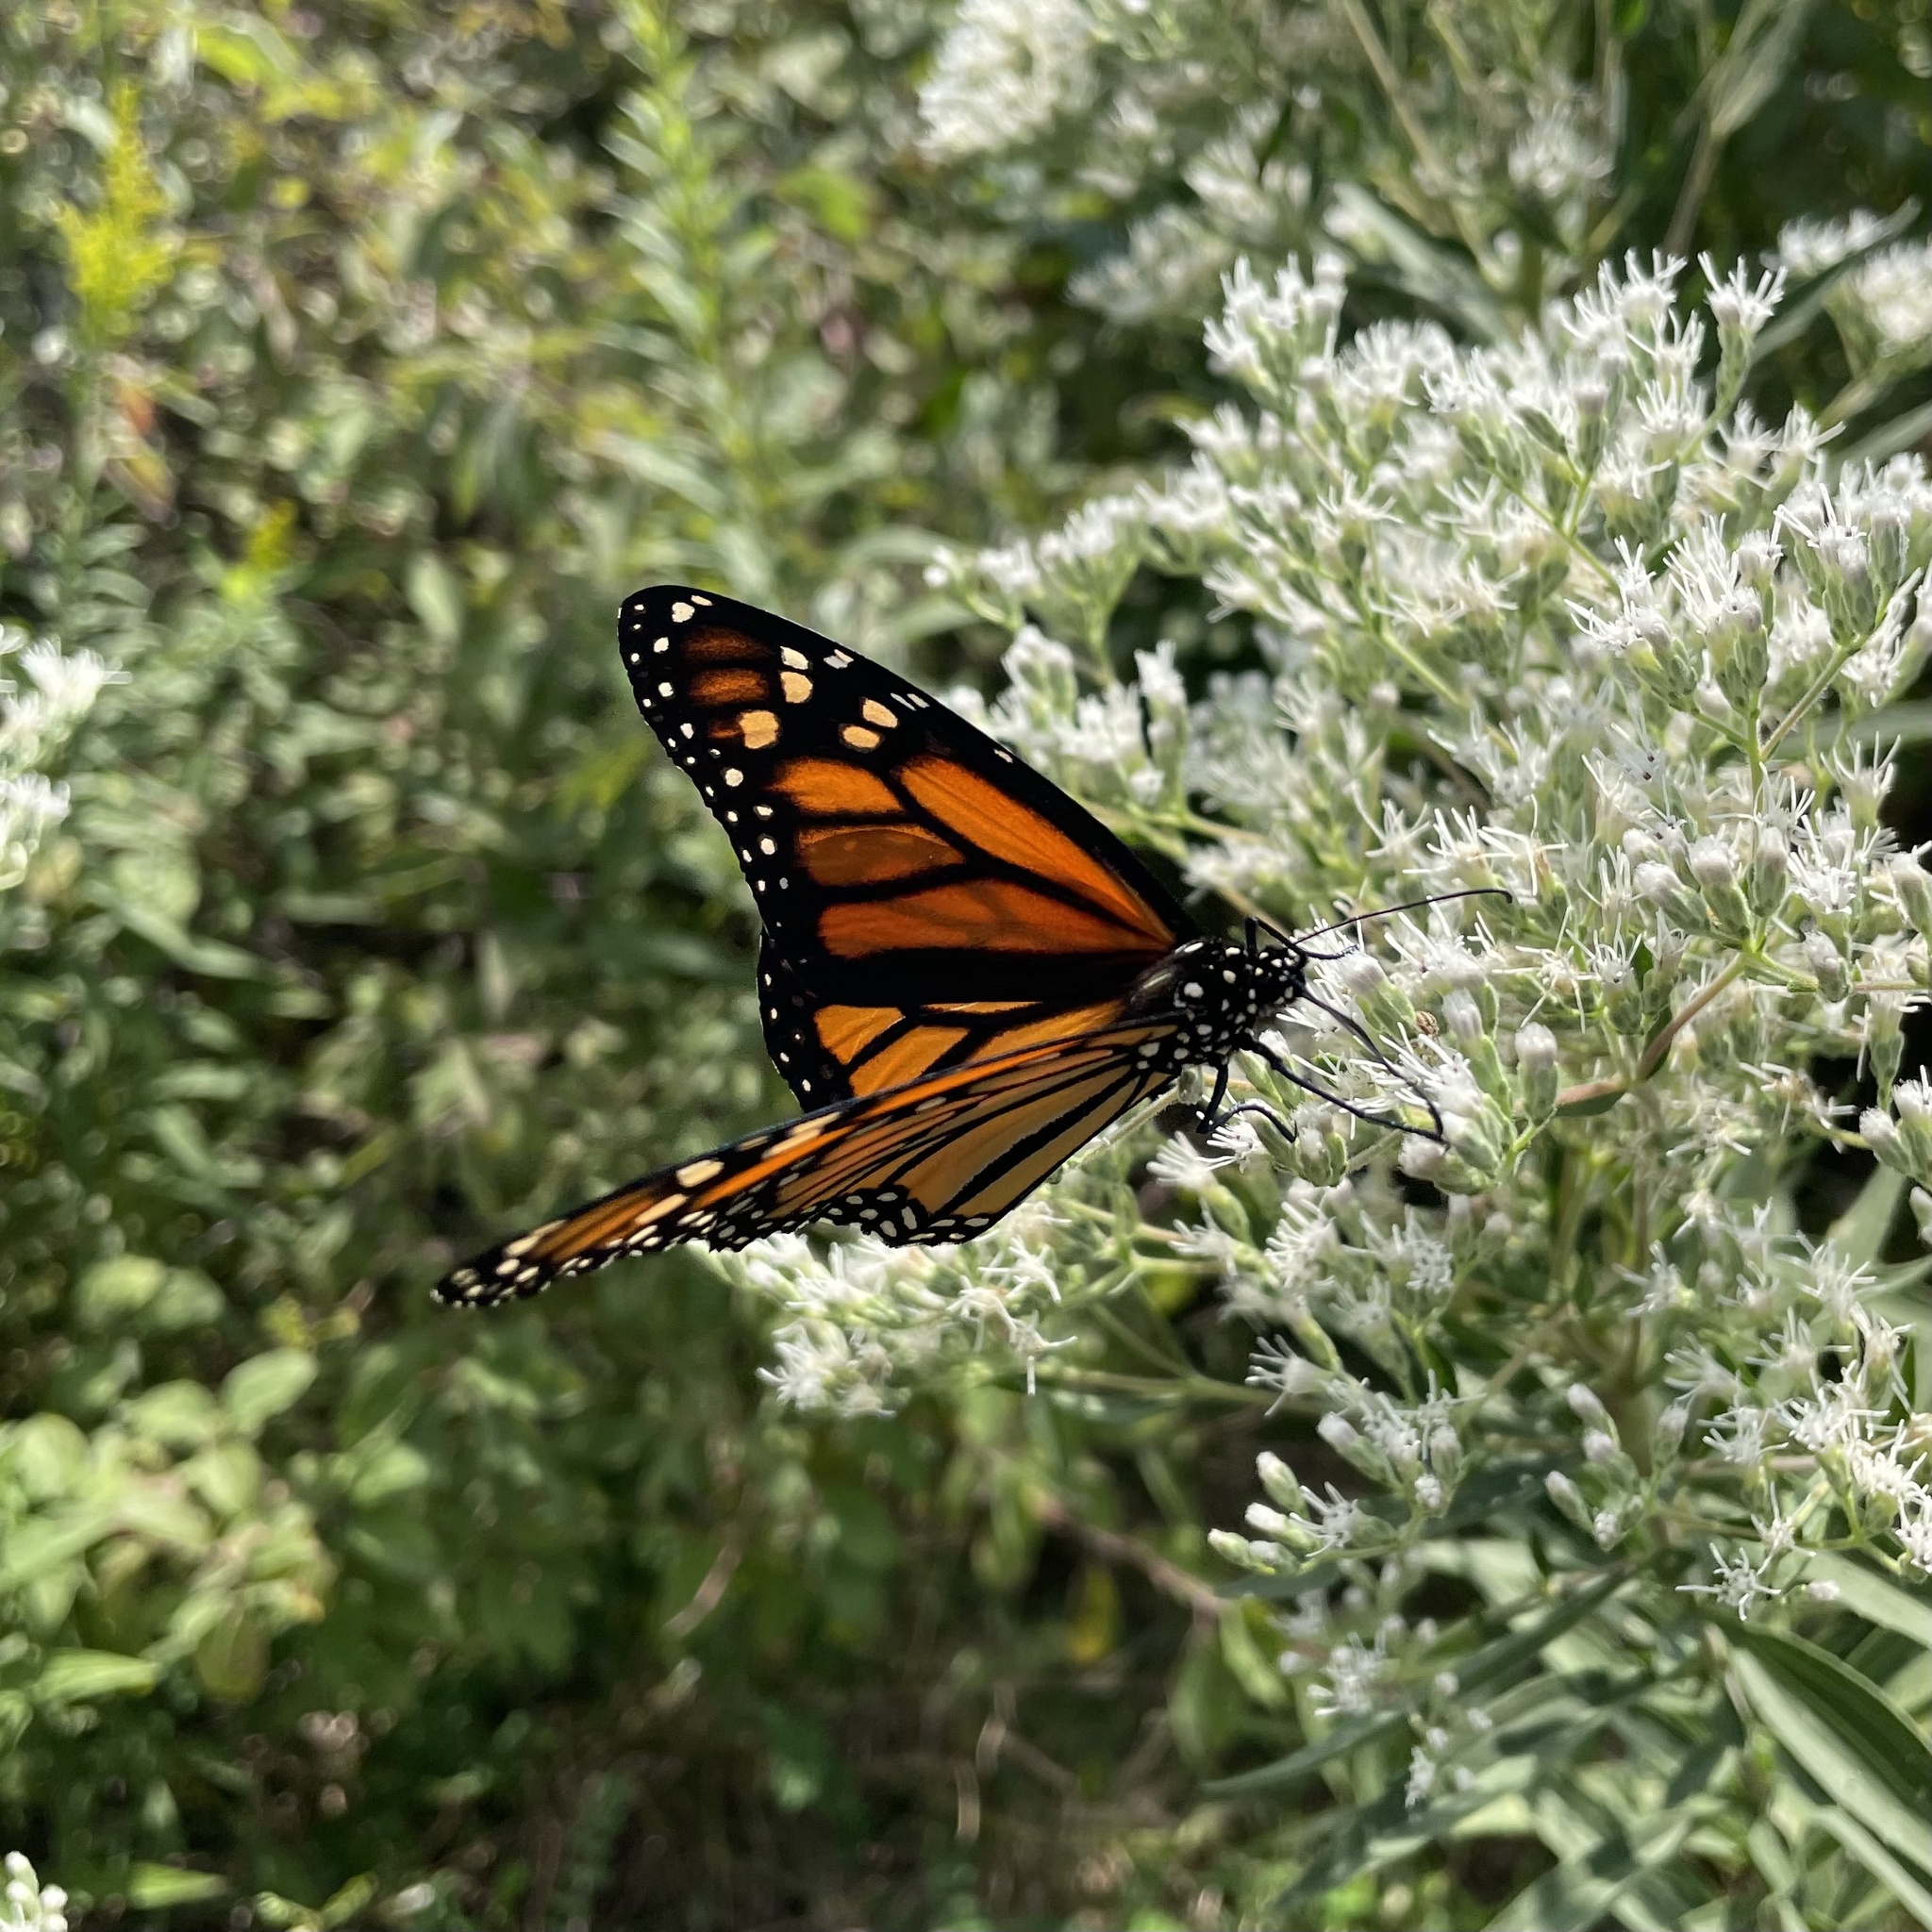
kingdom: Animalia
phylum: Arthropoda
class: Insecta
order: Lepidoptera
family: Nymphalidae
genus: Danaus
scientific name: Danaus plexippus
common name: Monarch
